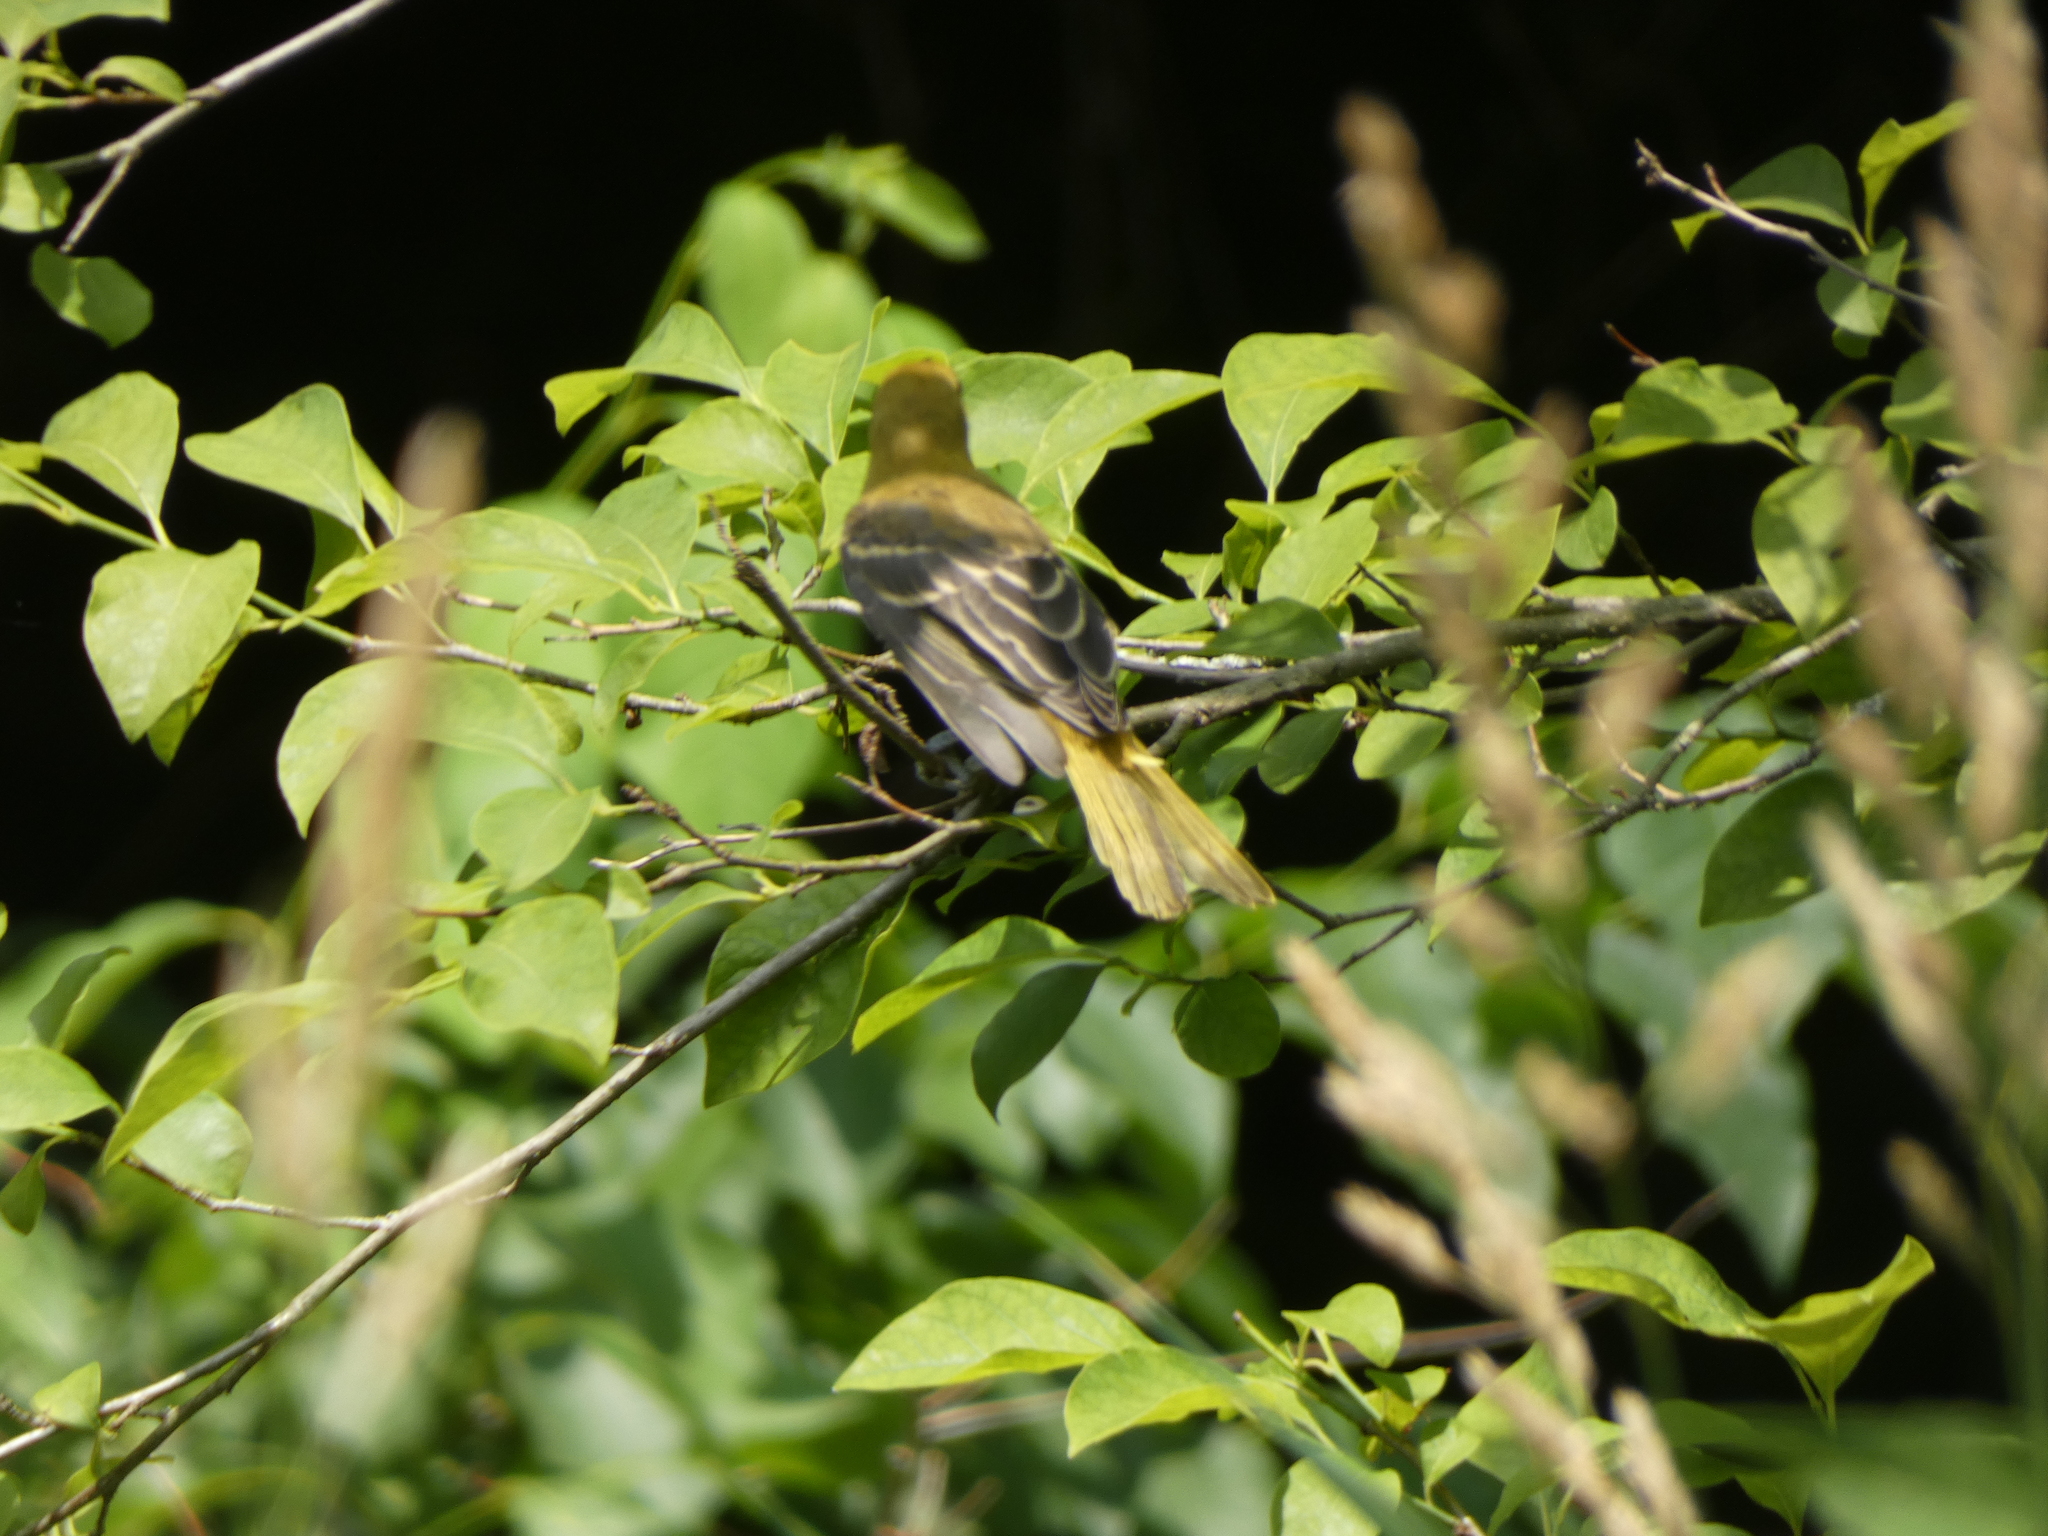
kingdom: Animalia
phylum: Chordata
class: Aves
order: Passeriformes
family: Icteridae
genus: Icterus
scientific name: Icterus spurius
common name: Orchard oriole
